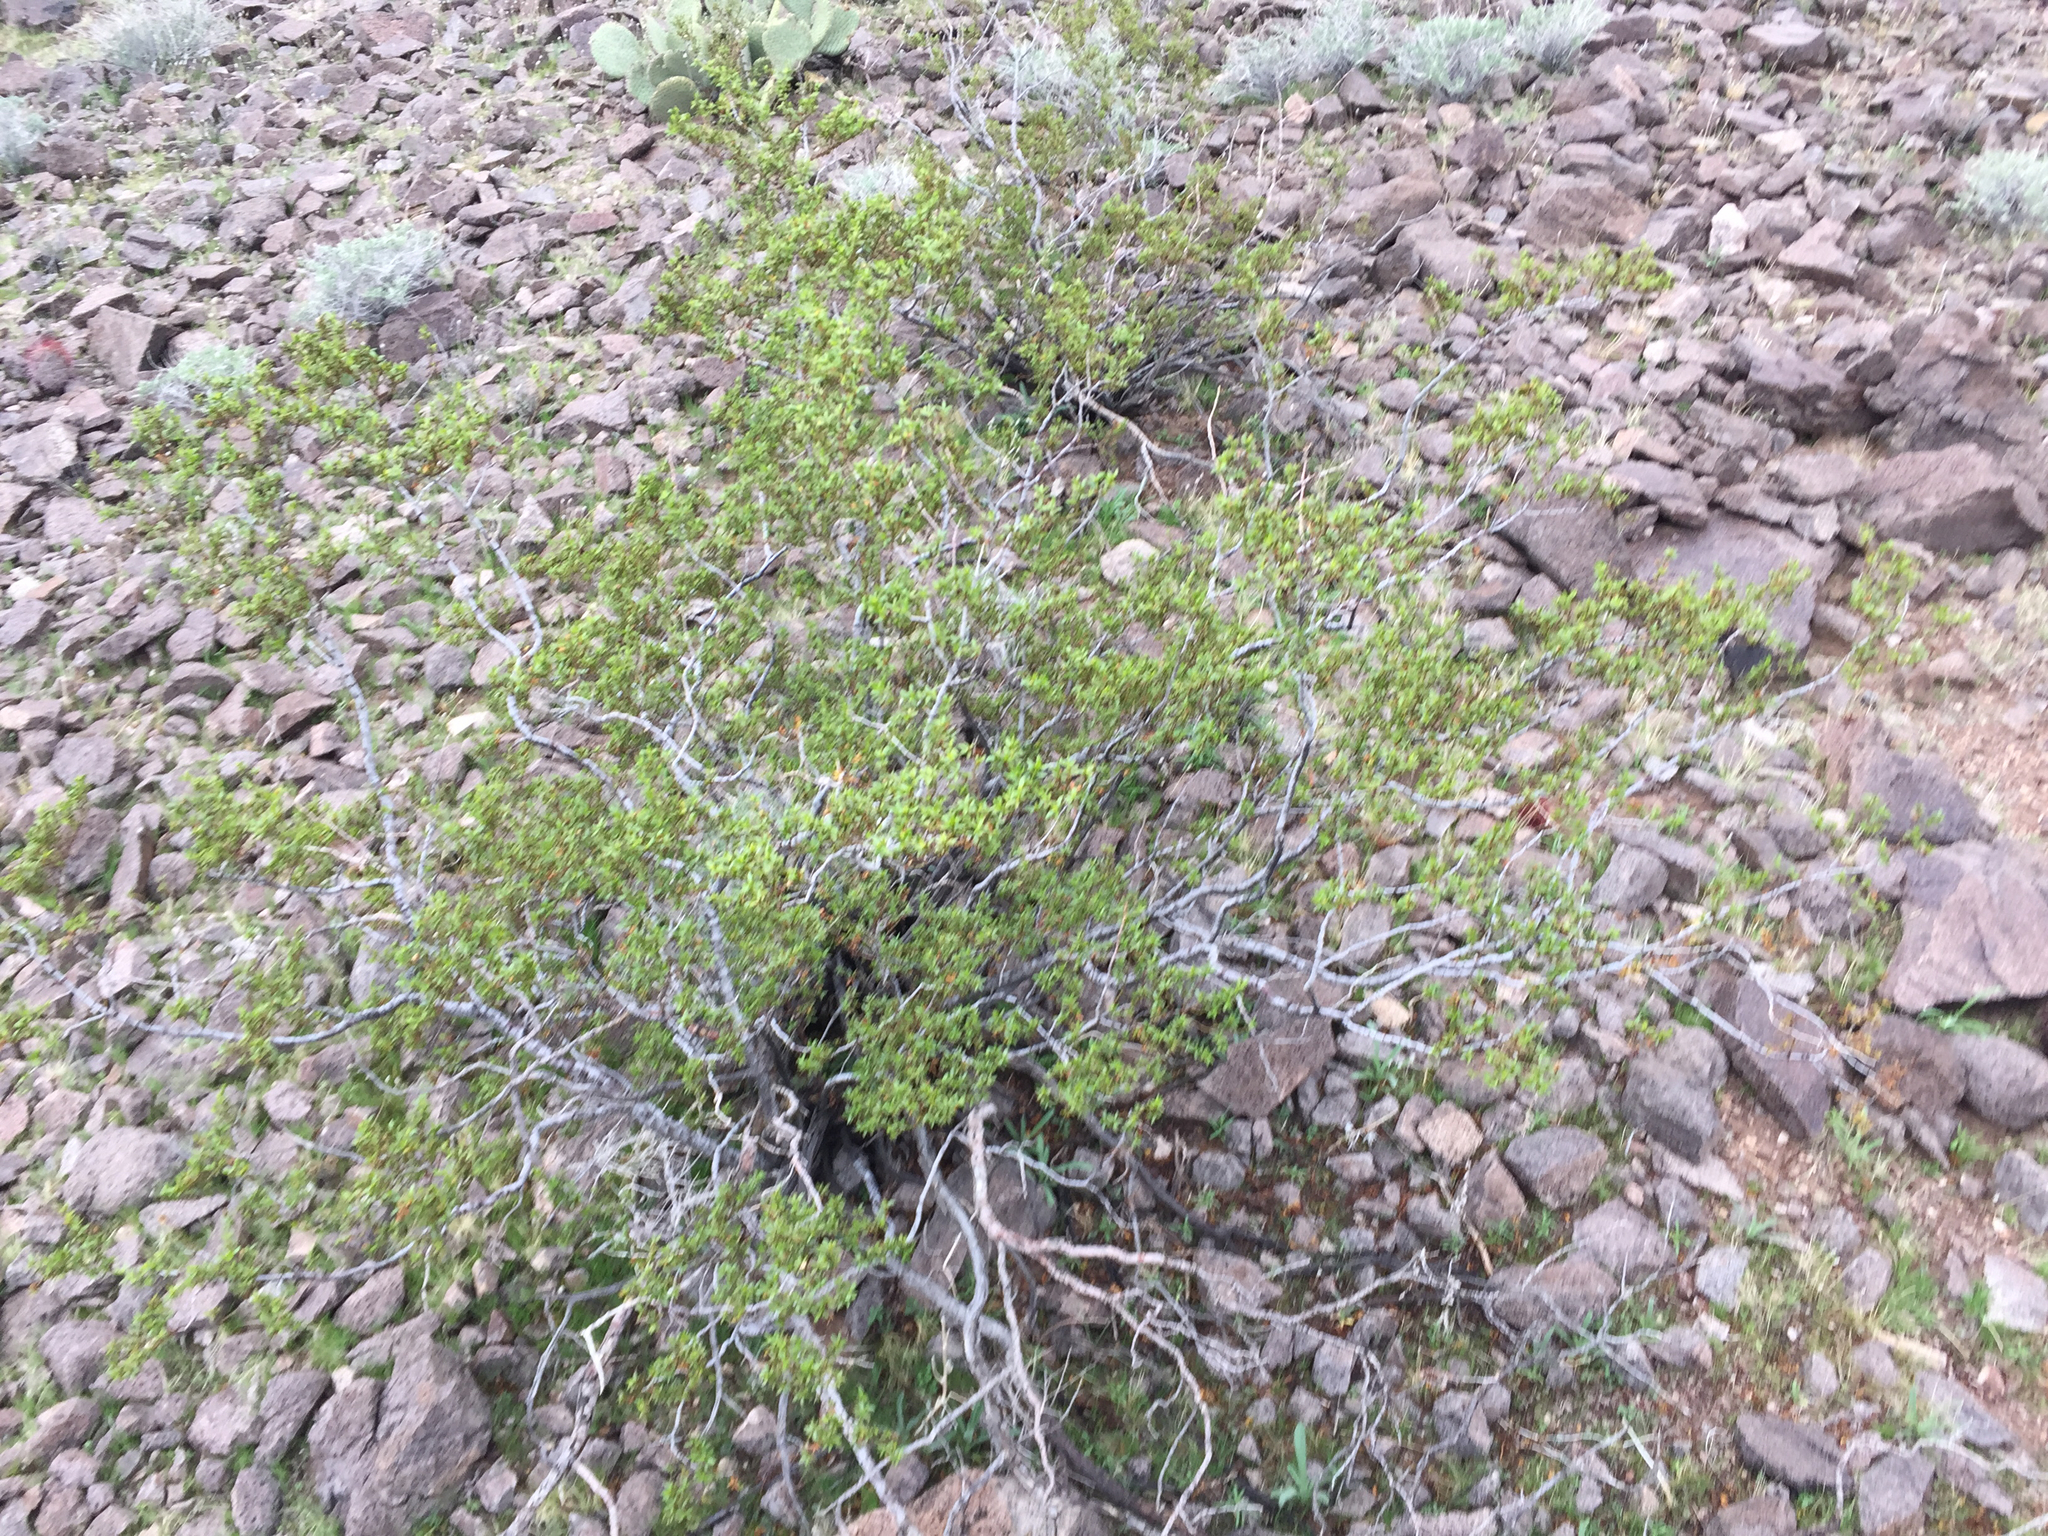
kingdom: Plantae
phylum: Tracheophyta
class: Magnoliopsida
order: Zygophyllales
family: Zygophyllaceae
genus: Larrea
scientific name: Larrea tridentata
